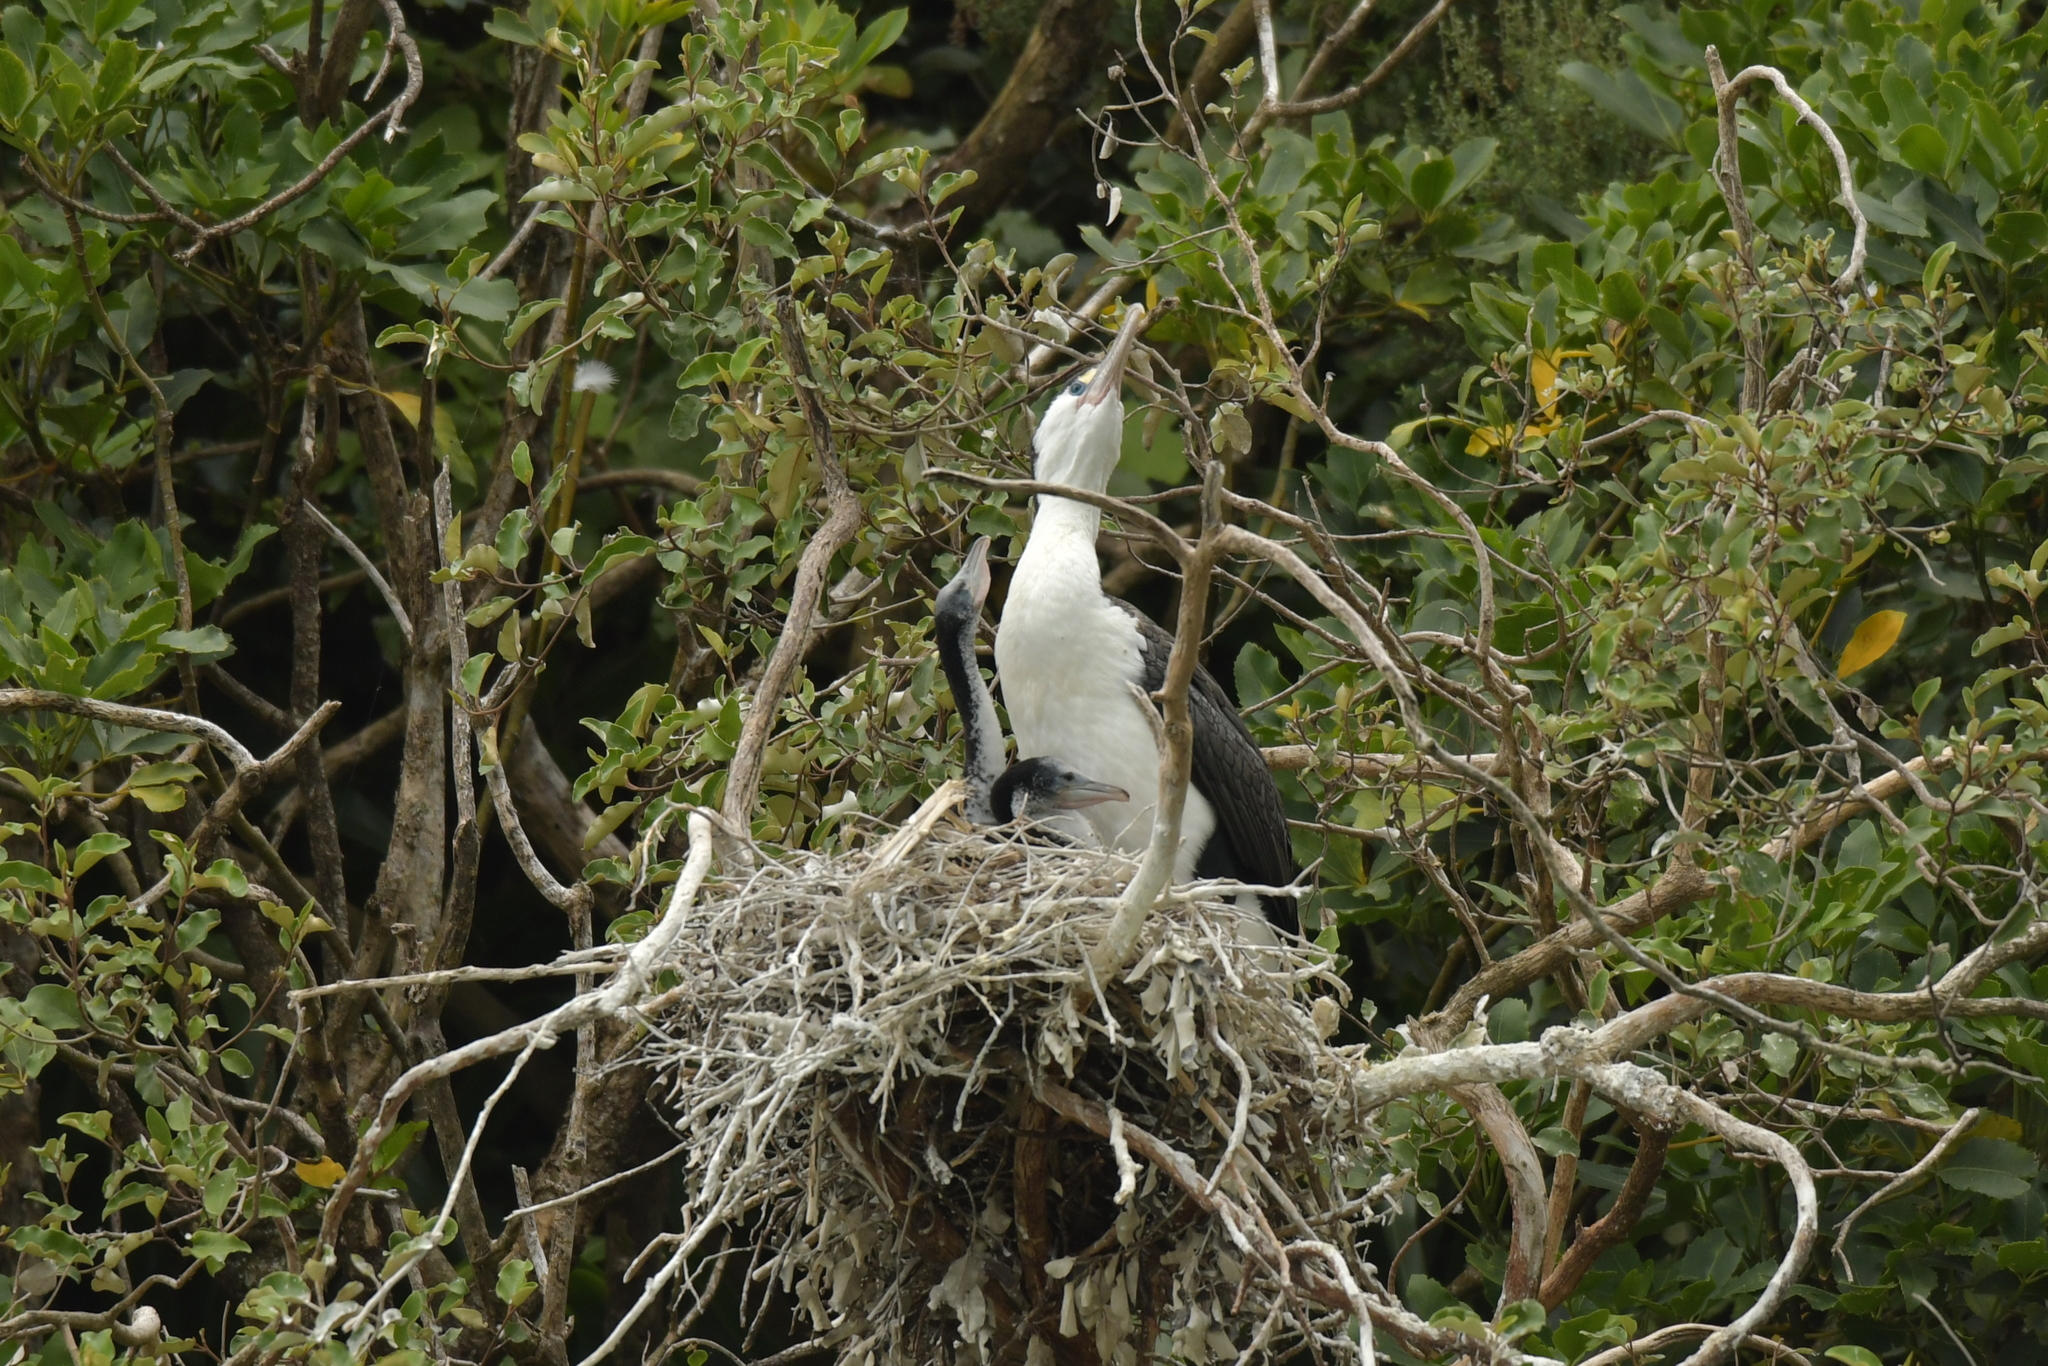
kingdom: Animalia
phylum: Chordata
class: Aves
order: Suliformes
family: Phalacrocoracidae
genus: Phalacrocorax
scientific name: Phalacrocorax varius
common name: Pied cormorant
